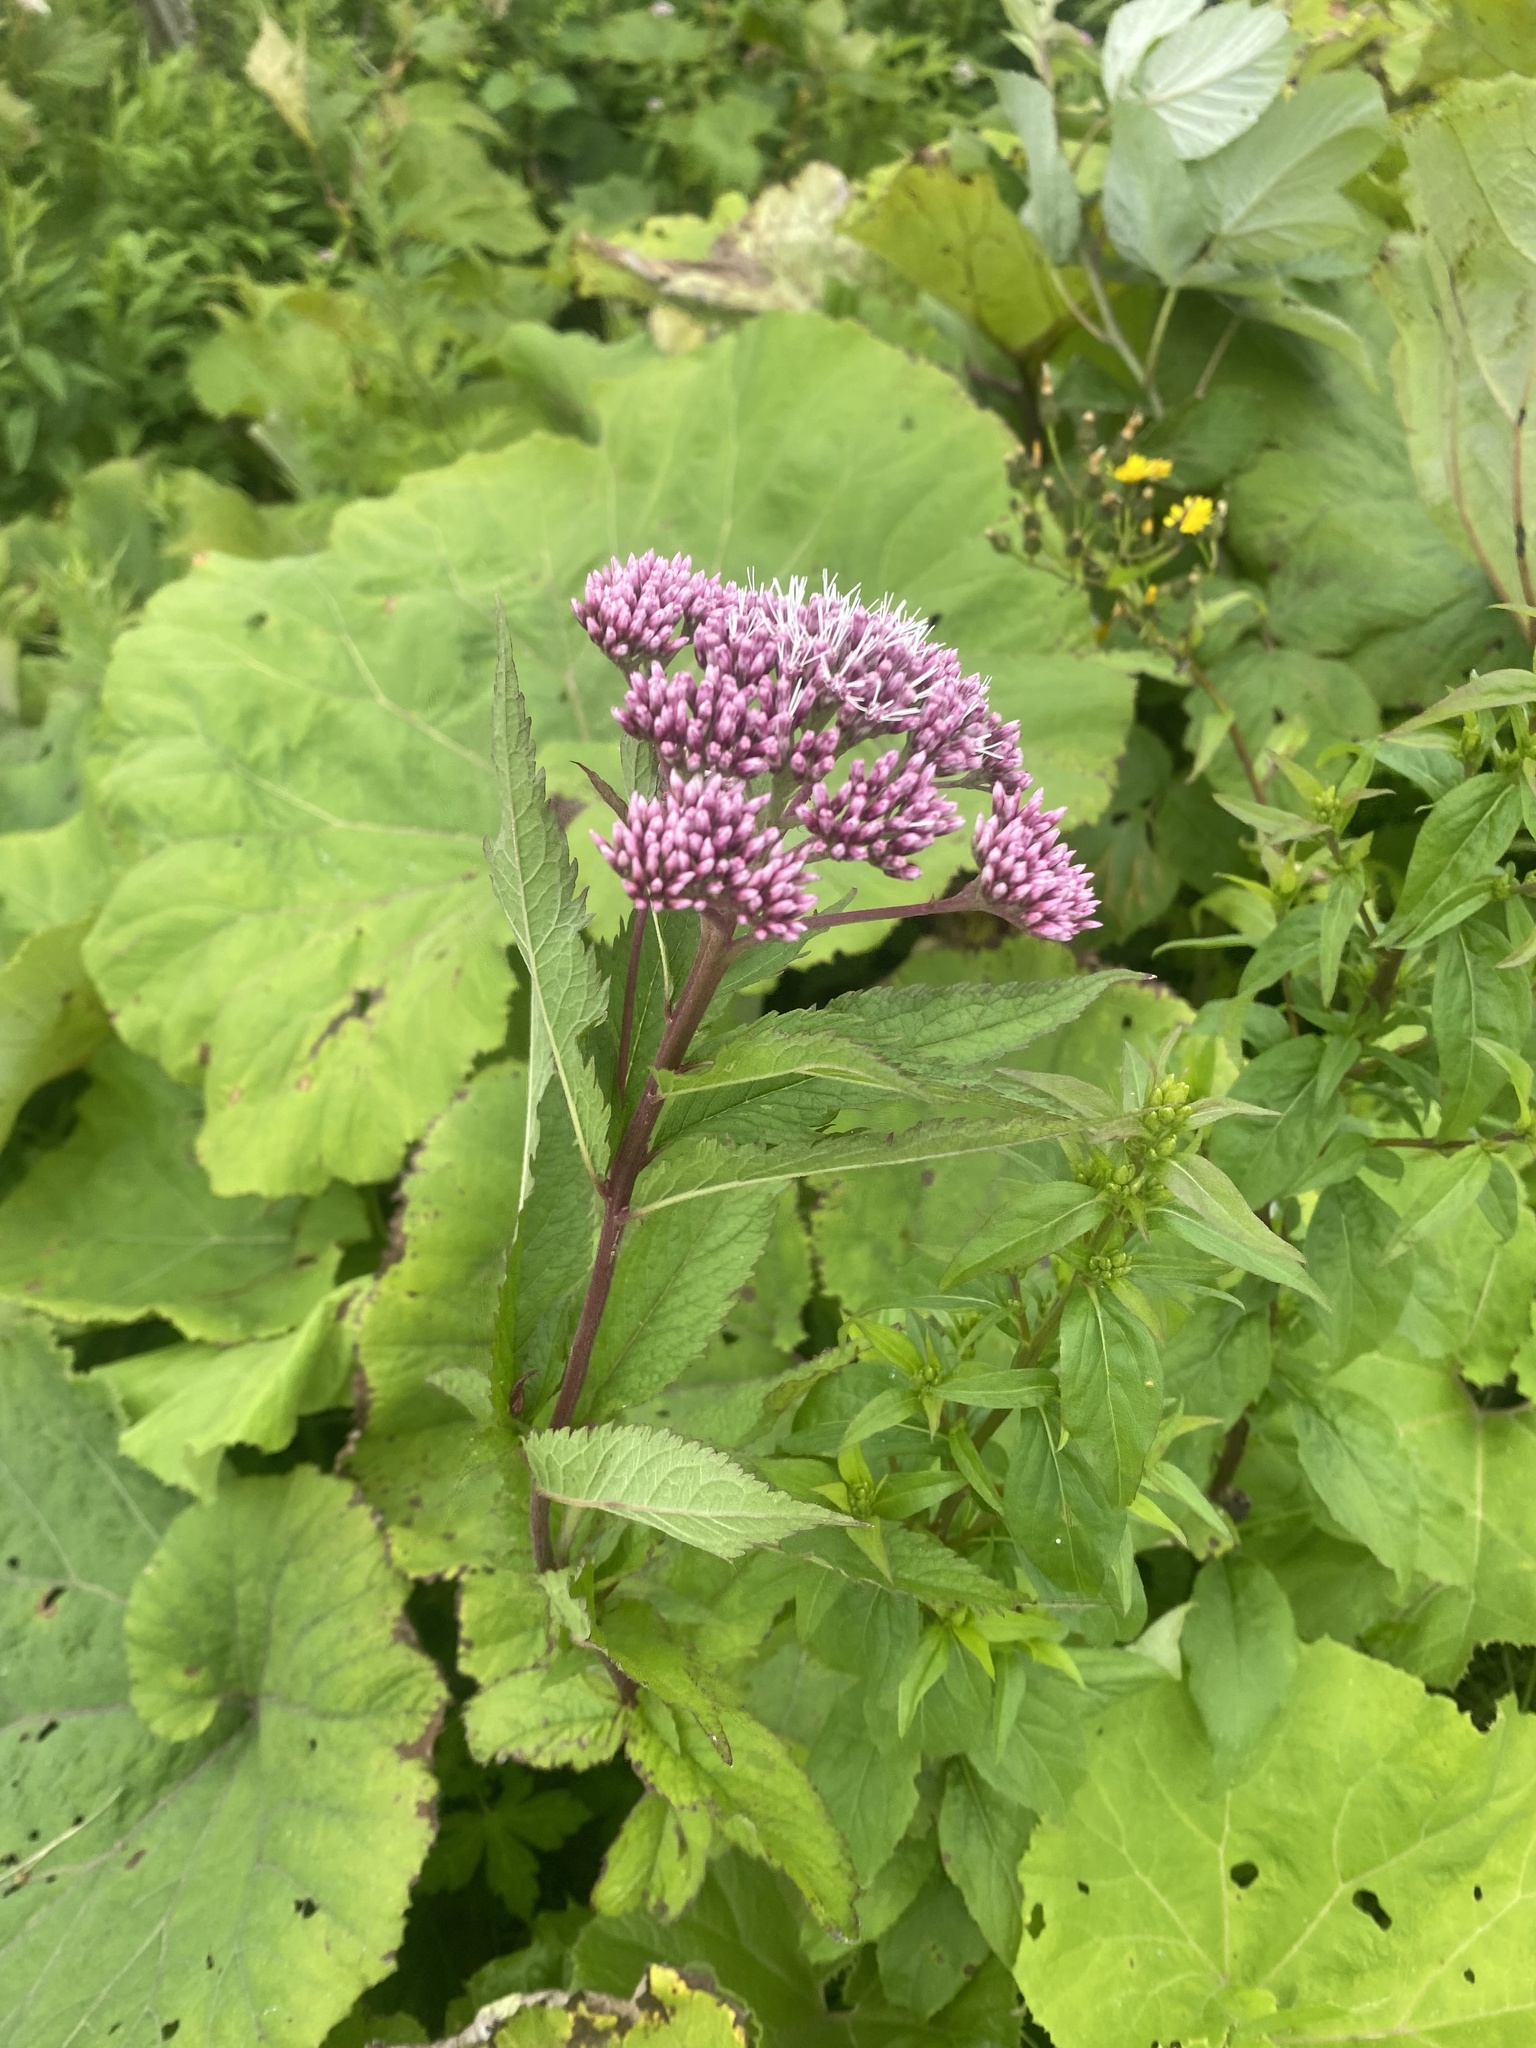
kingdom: Plantae
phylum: Tracheophyta
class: Magnoliopsida
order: Asterales
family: Asteraceae
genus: Eupatorium
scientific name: Eupatorium glehnii
